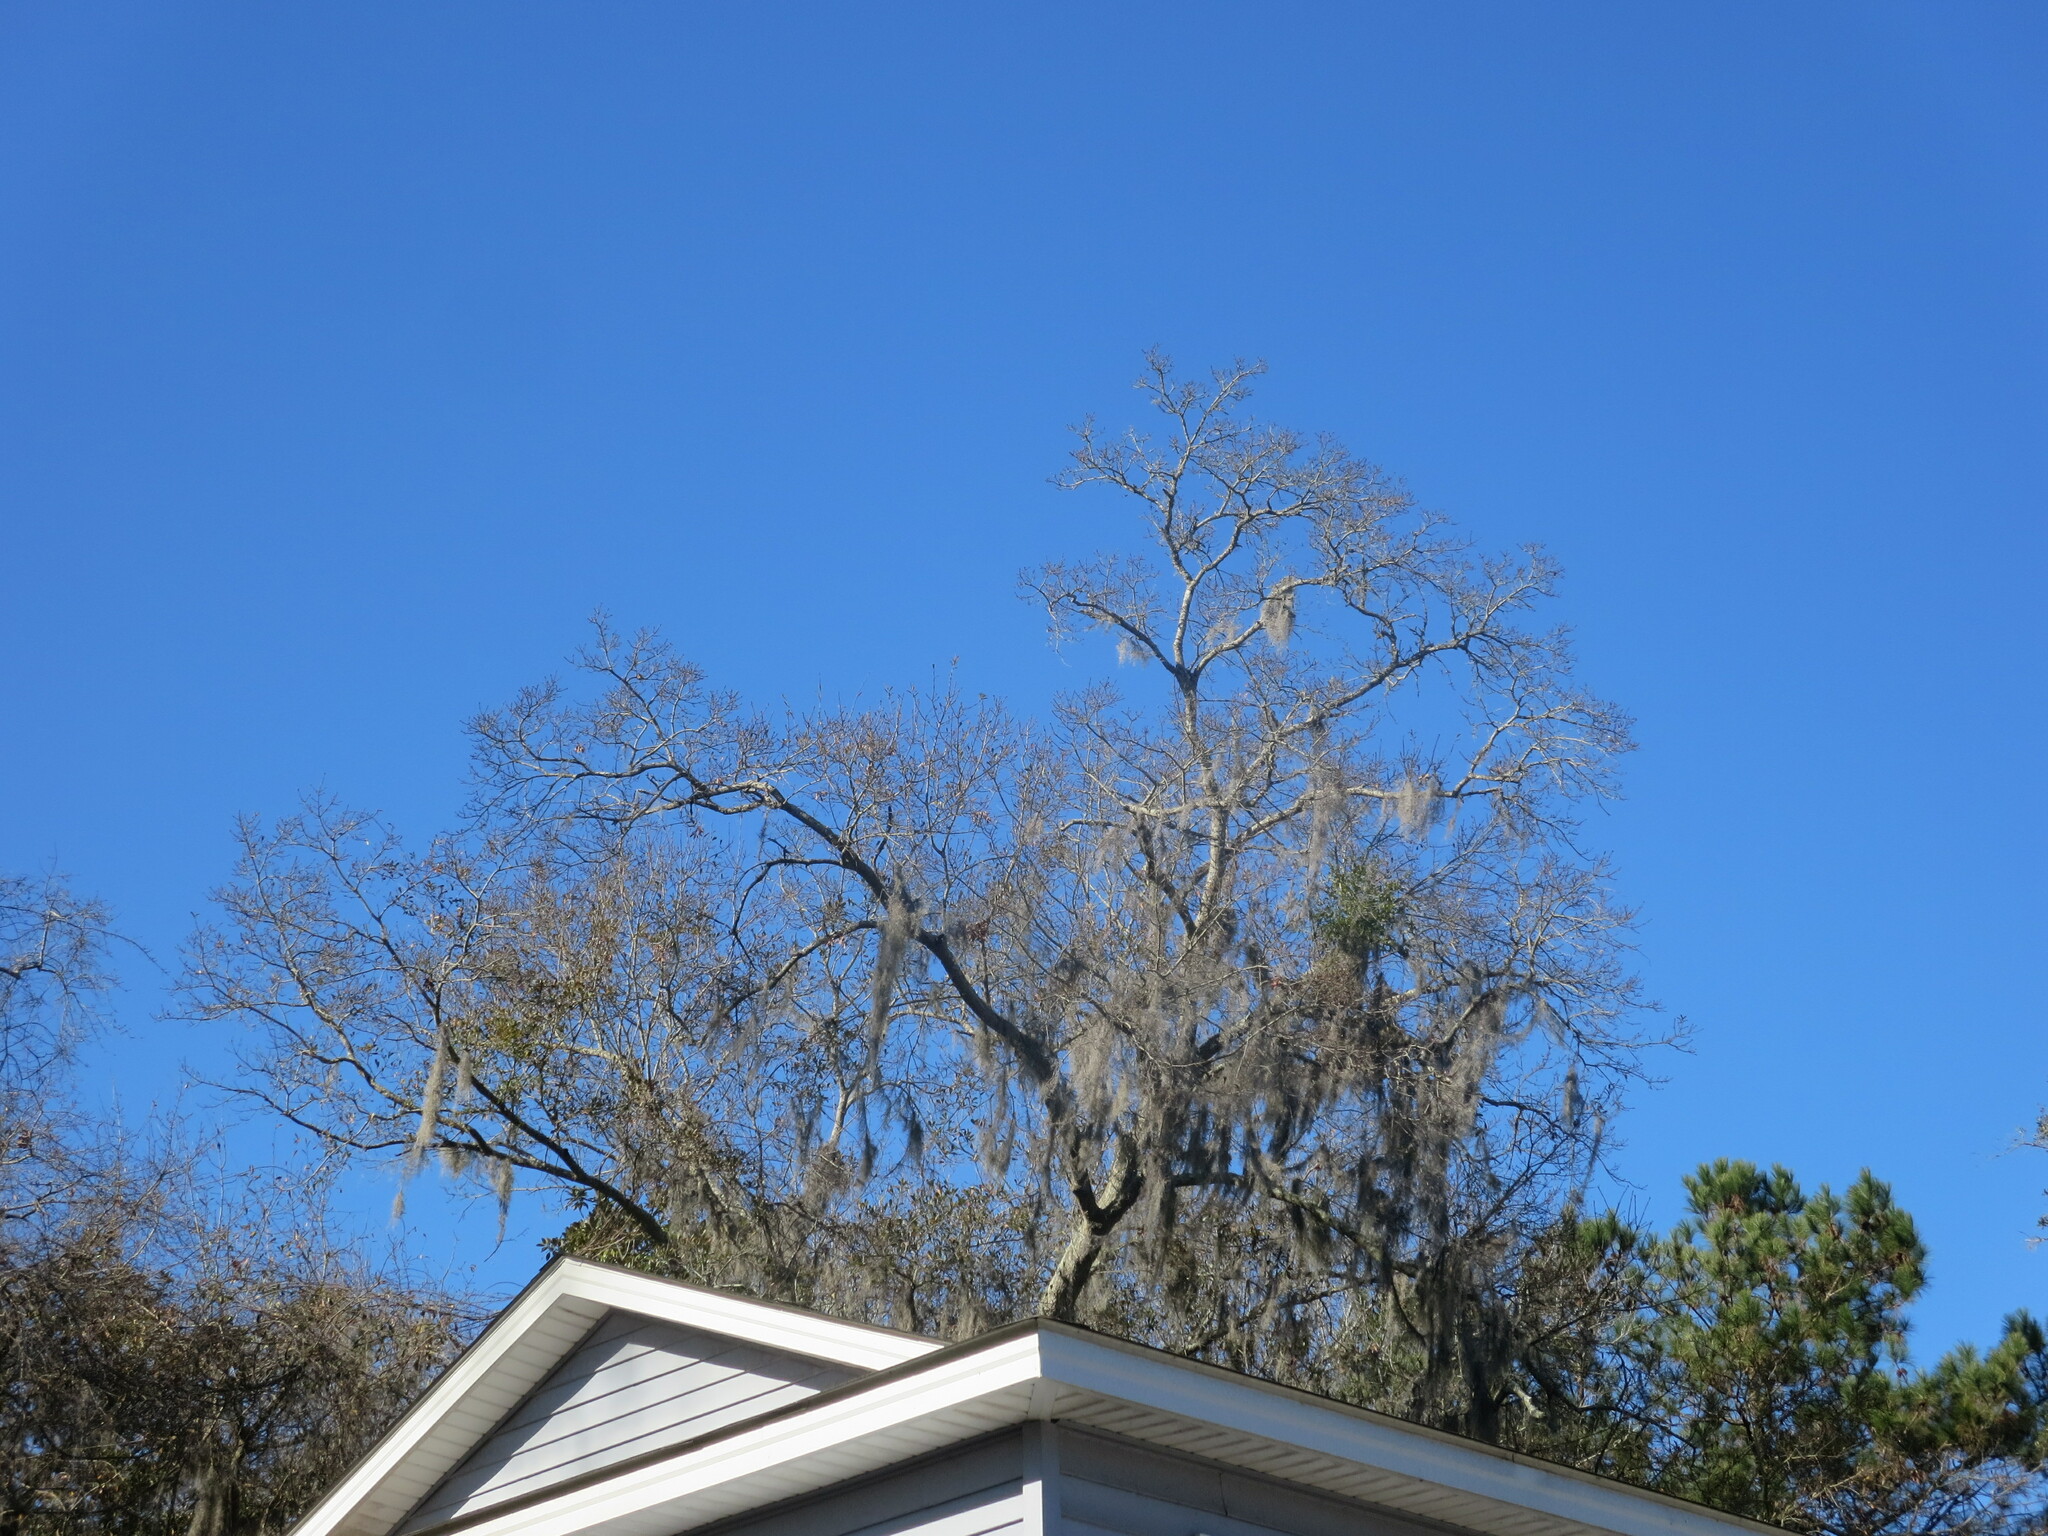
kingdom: Plantae
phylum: Tracheophyta
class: Magnoliopsida
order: Santalales
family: Viscaceae
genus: Phoradendron
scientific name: Phoradendron leucarpum
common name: Pacific mistletoe
